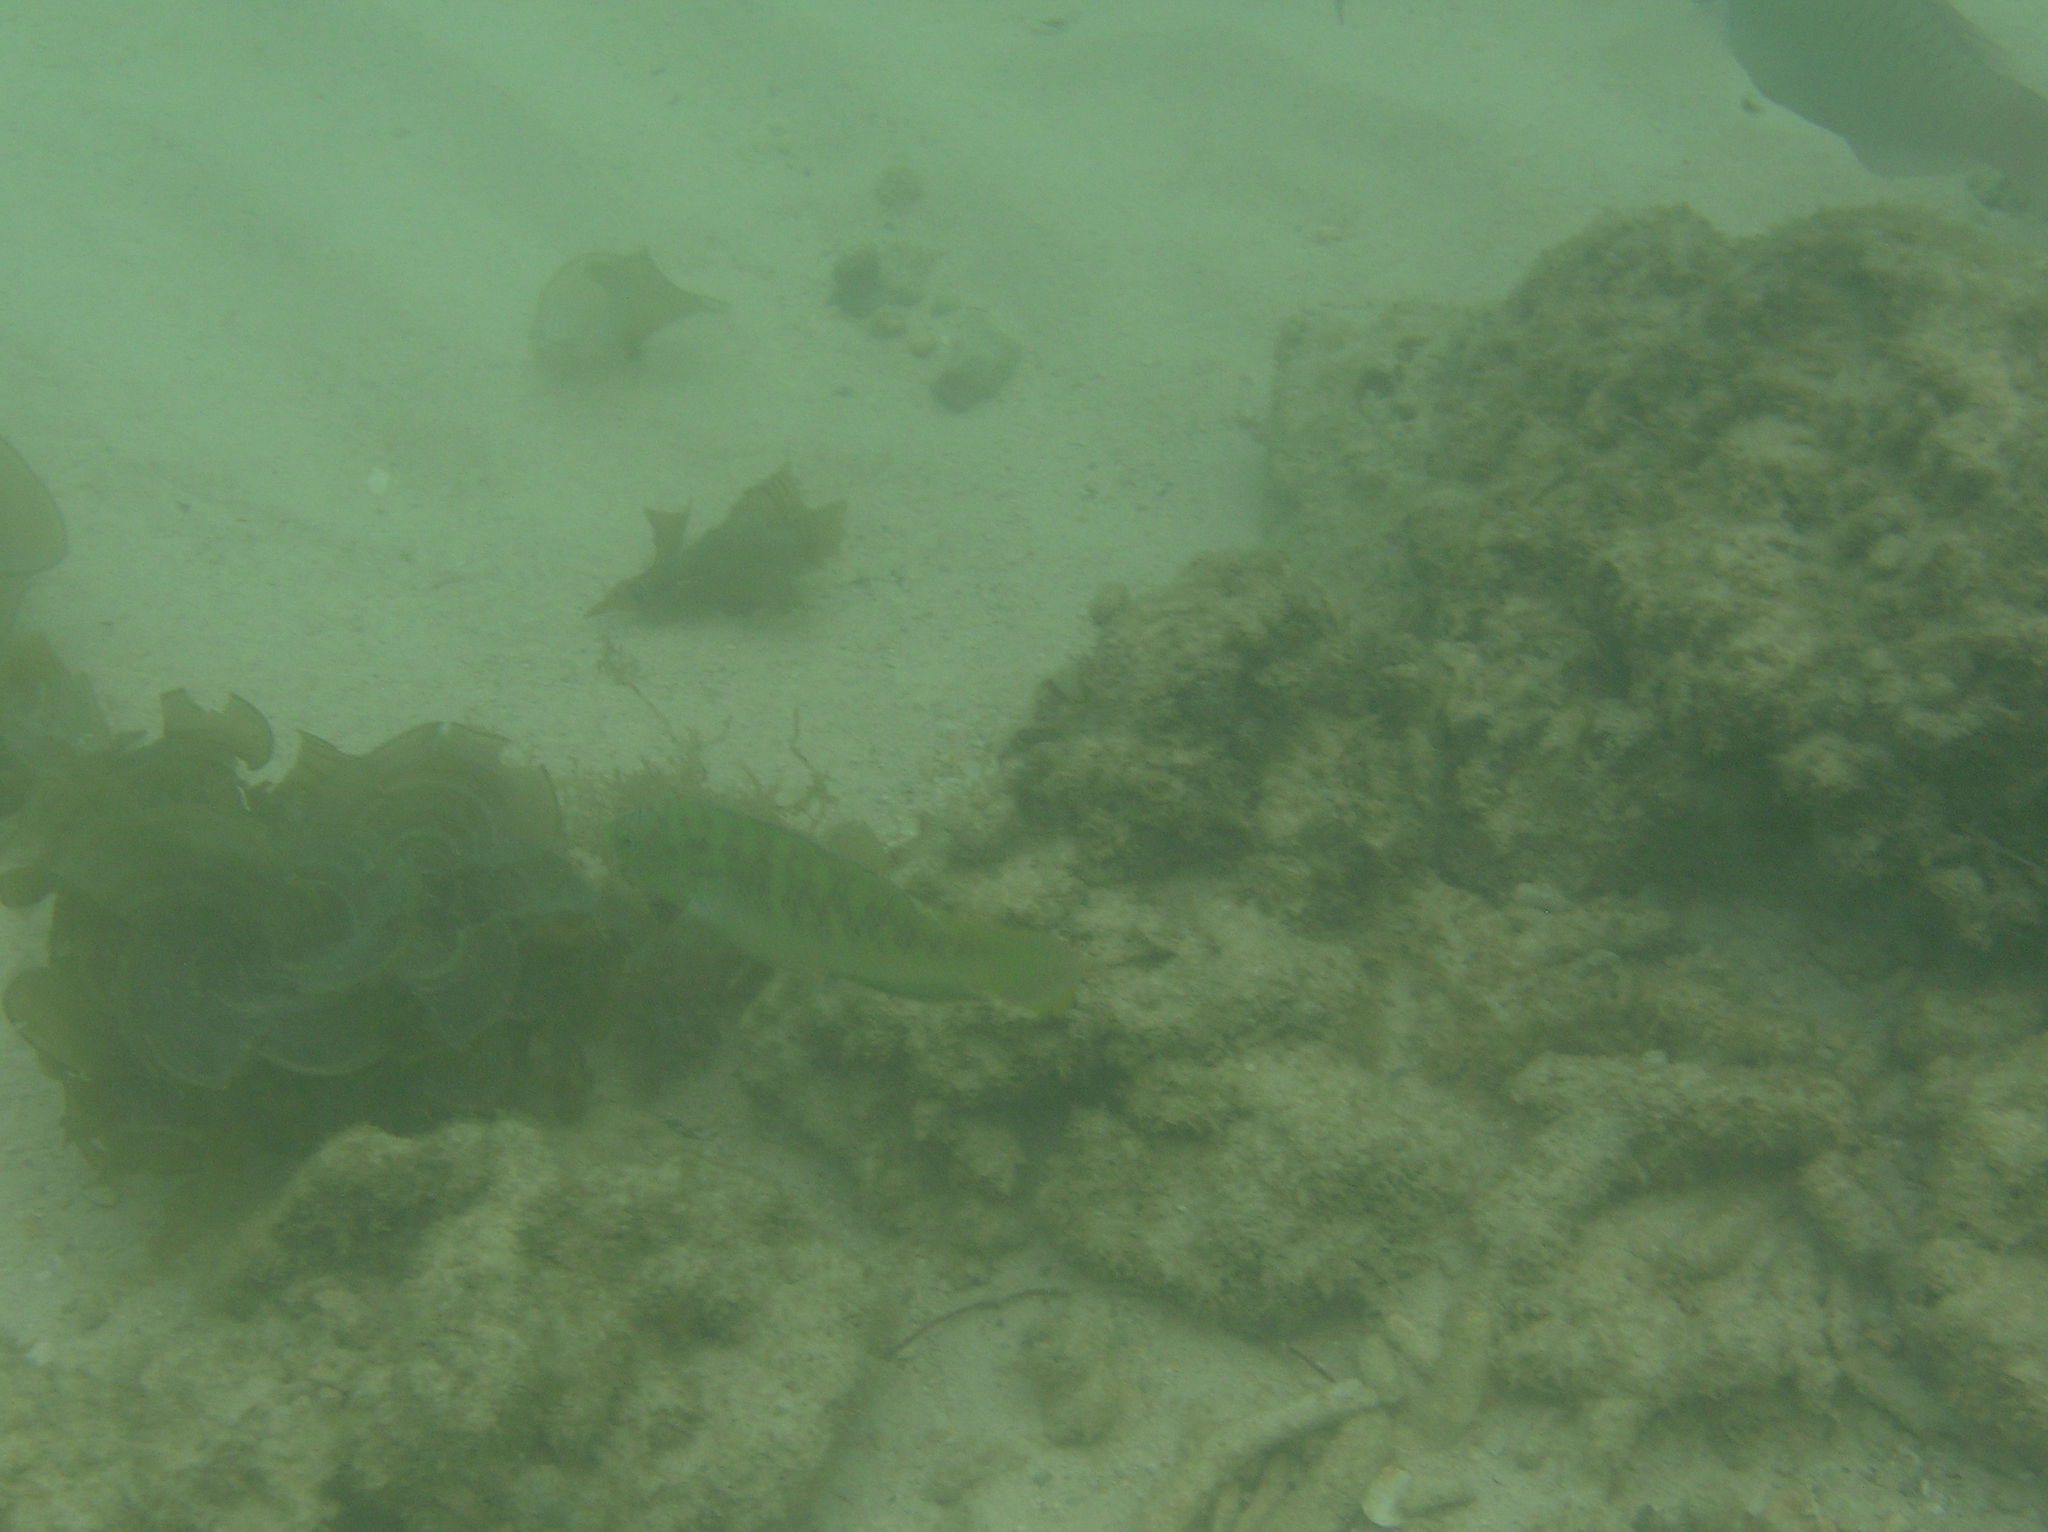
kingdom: Animalia
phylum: Chordata
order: Perciformes
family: Labridae
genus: Halichoeres
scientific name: Halichoeres nigrescens
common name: Bubblefin wrasse
